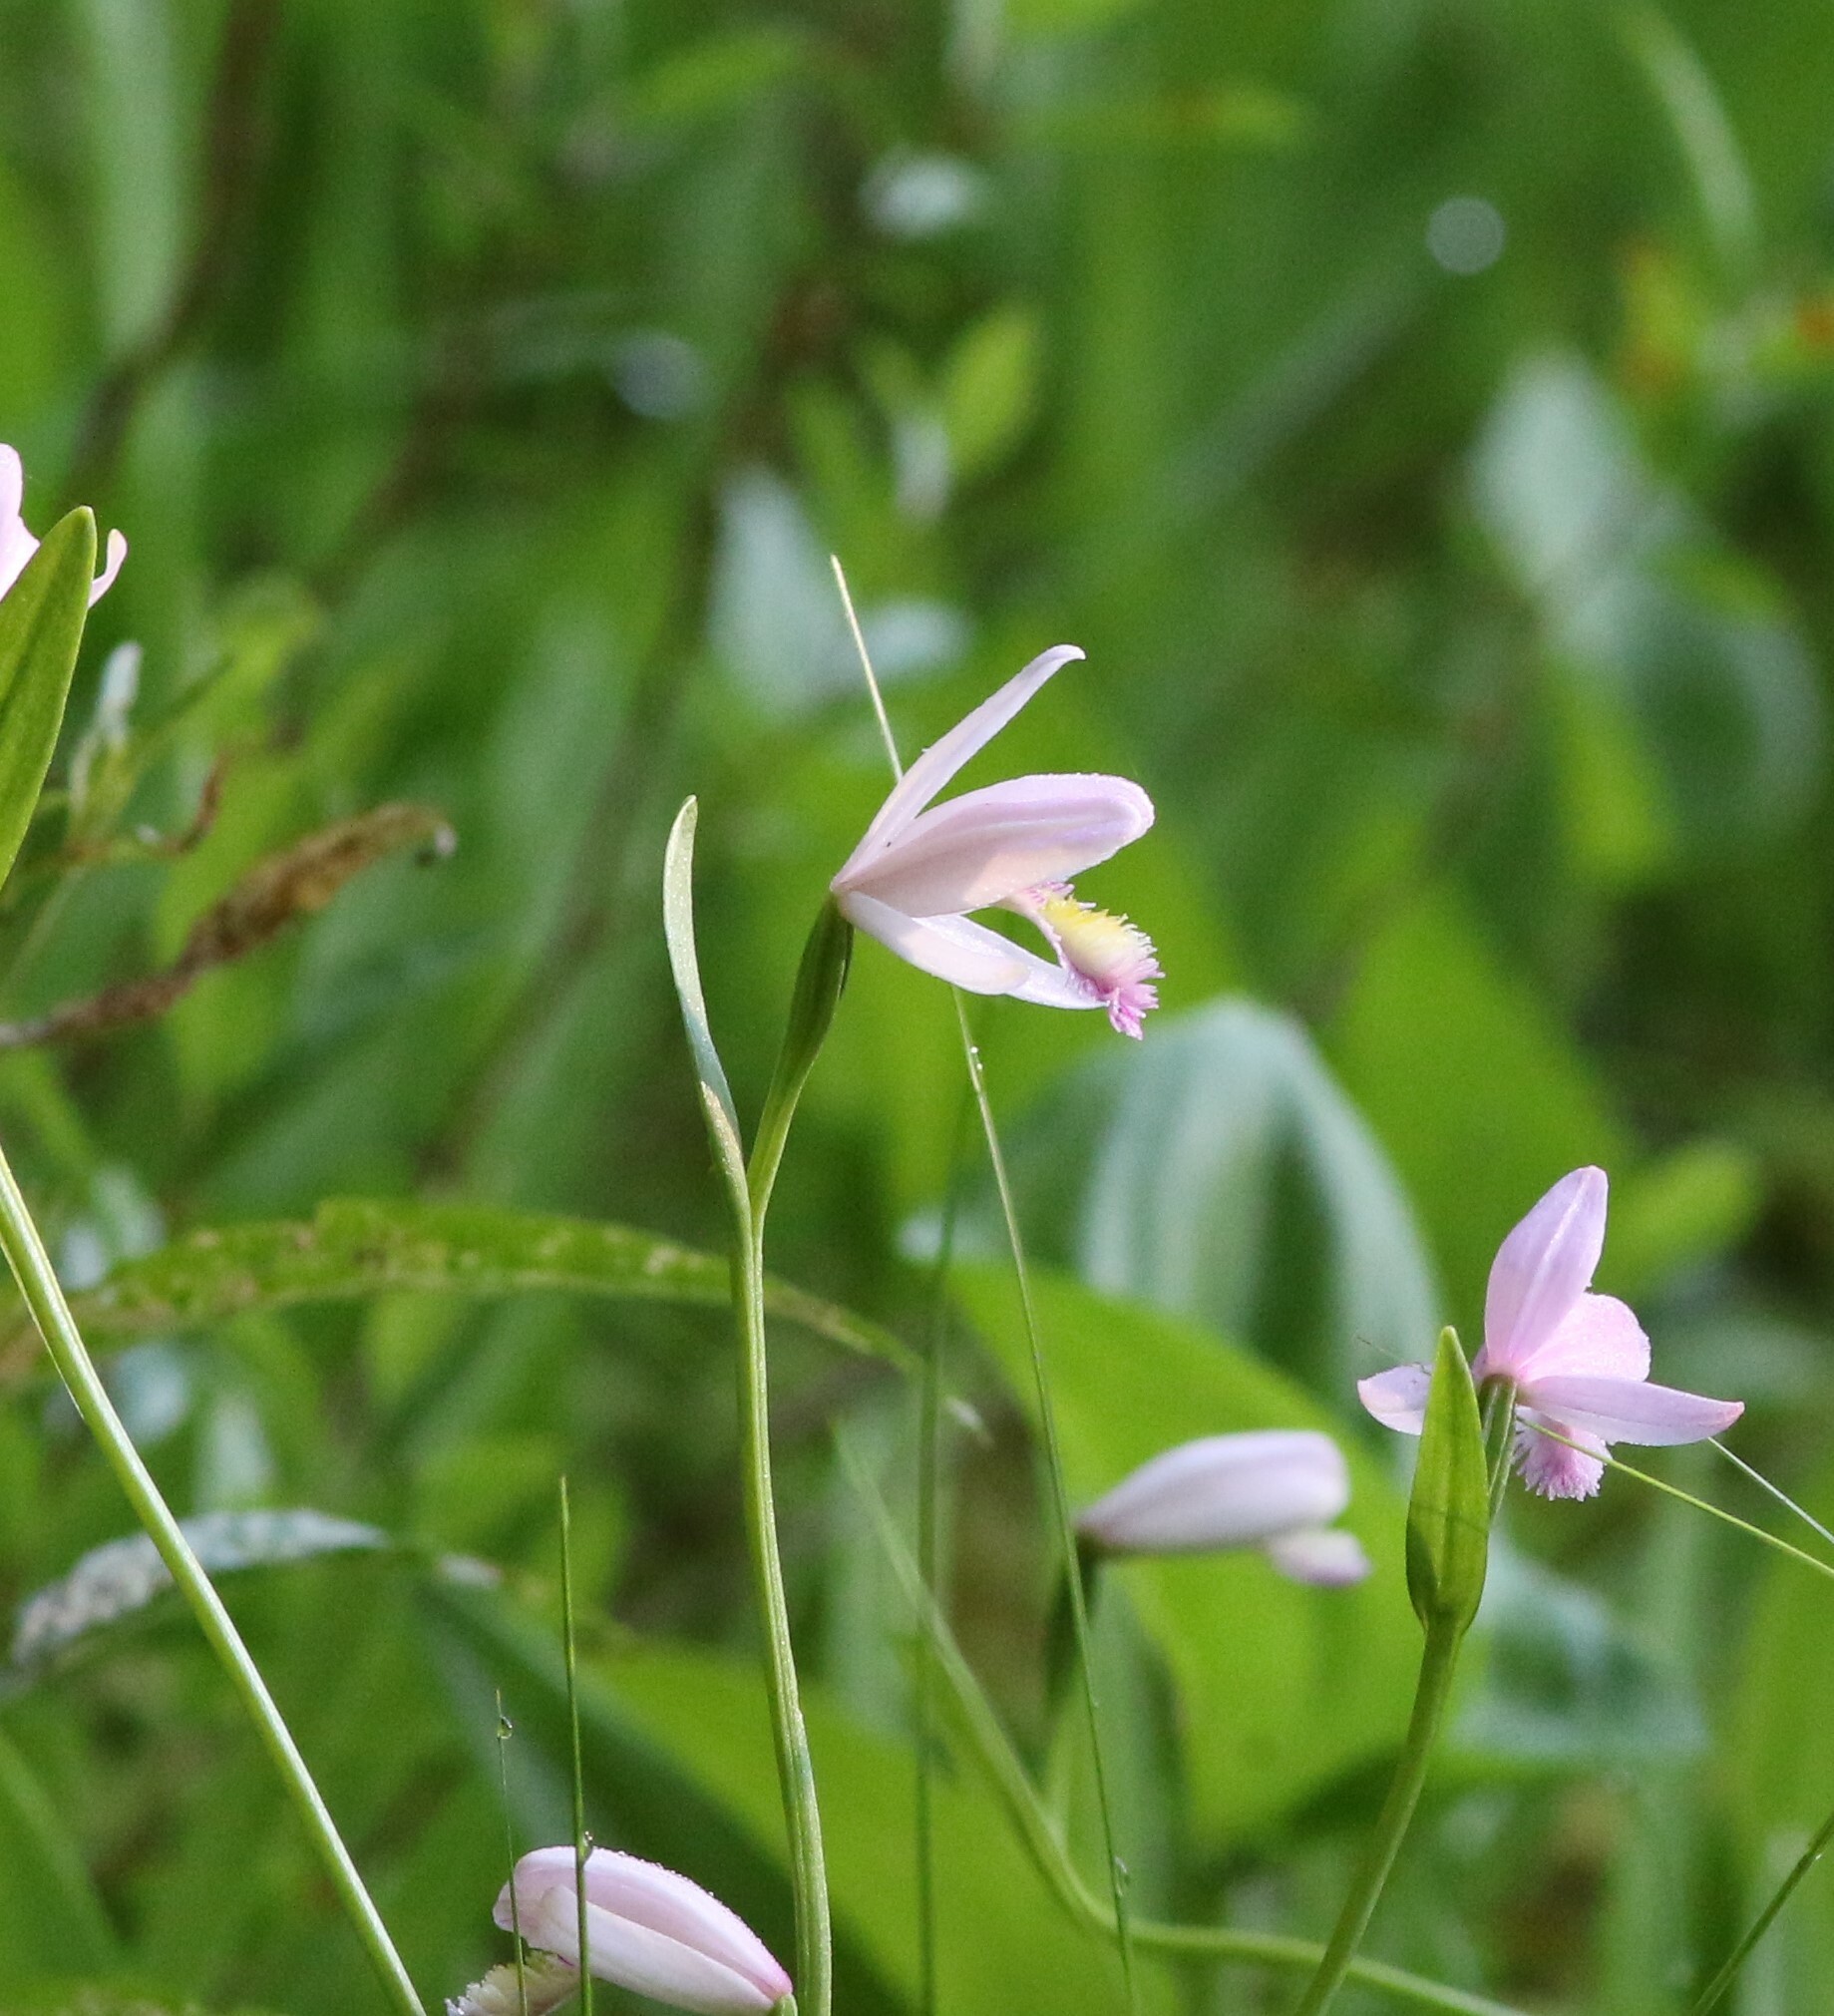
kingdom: Plantae
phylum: Tracheophyta
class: Liliopsida
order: Asparagales
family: Orchidaceae
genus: Pogonia
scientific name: Pogonia ophioglossoides
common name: Rose pogonia
